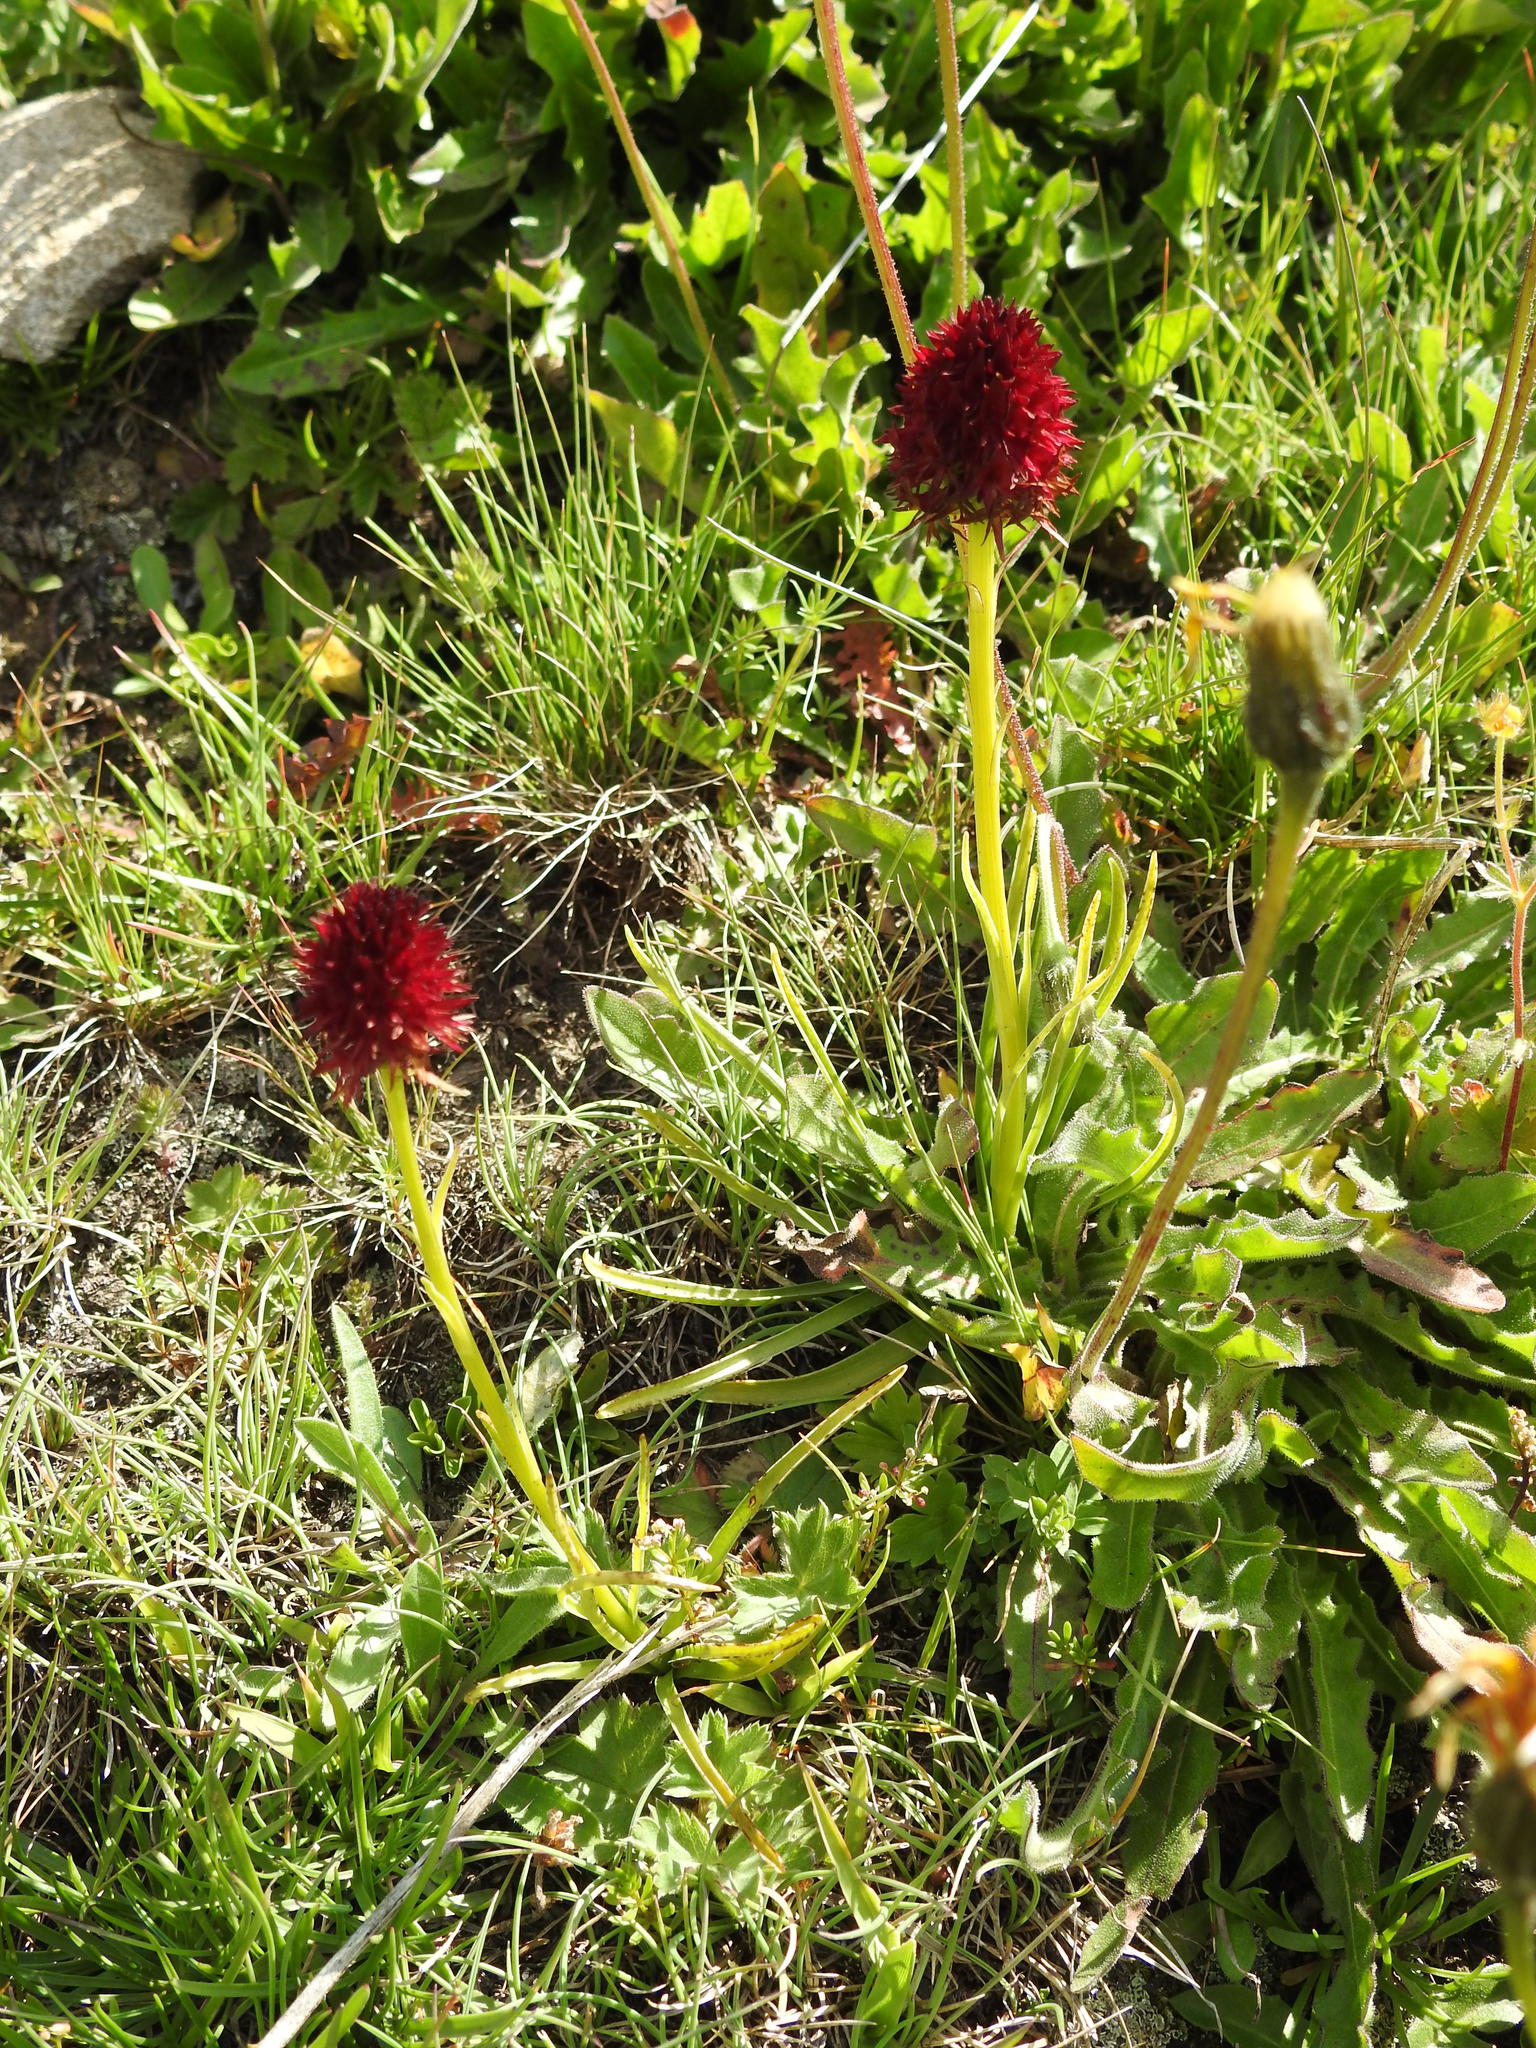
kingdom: Plantae
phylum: Tracheophyta
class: Liliopsida
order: Asparagales
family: Orchidaceae
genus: Gymnadenia
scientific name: Gymnadenia rhellicani
